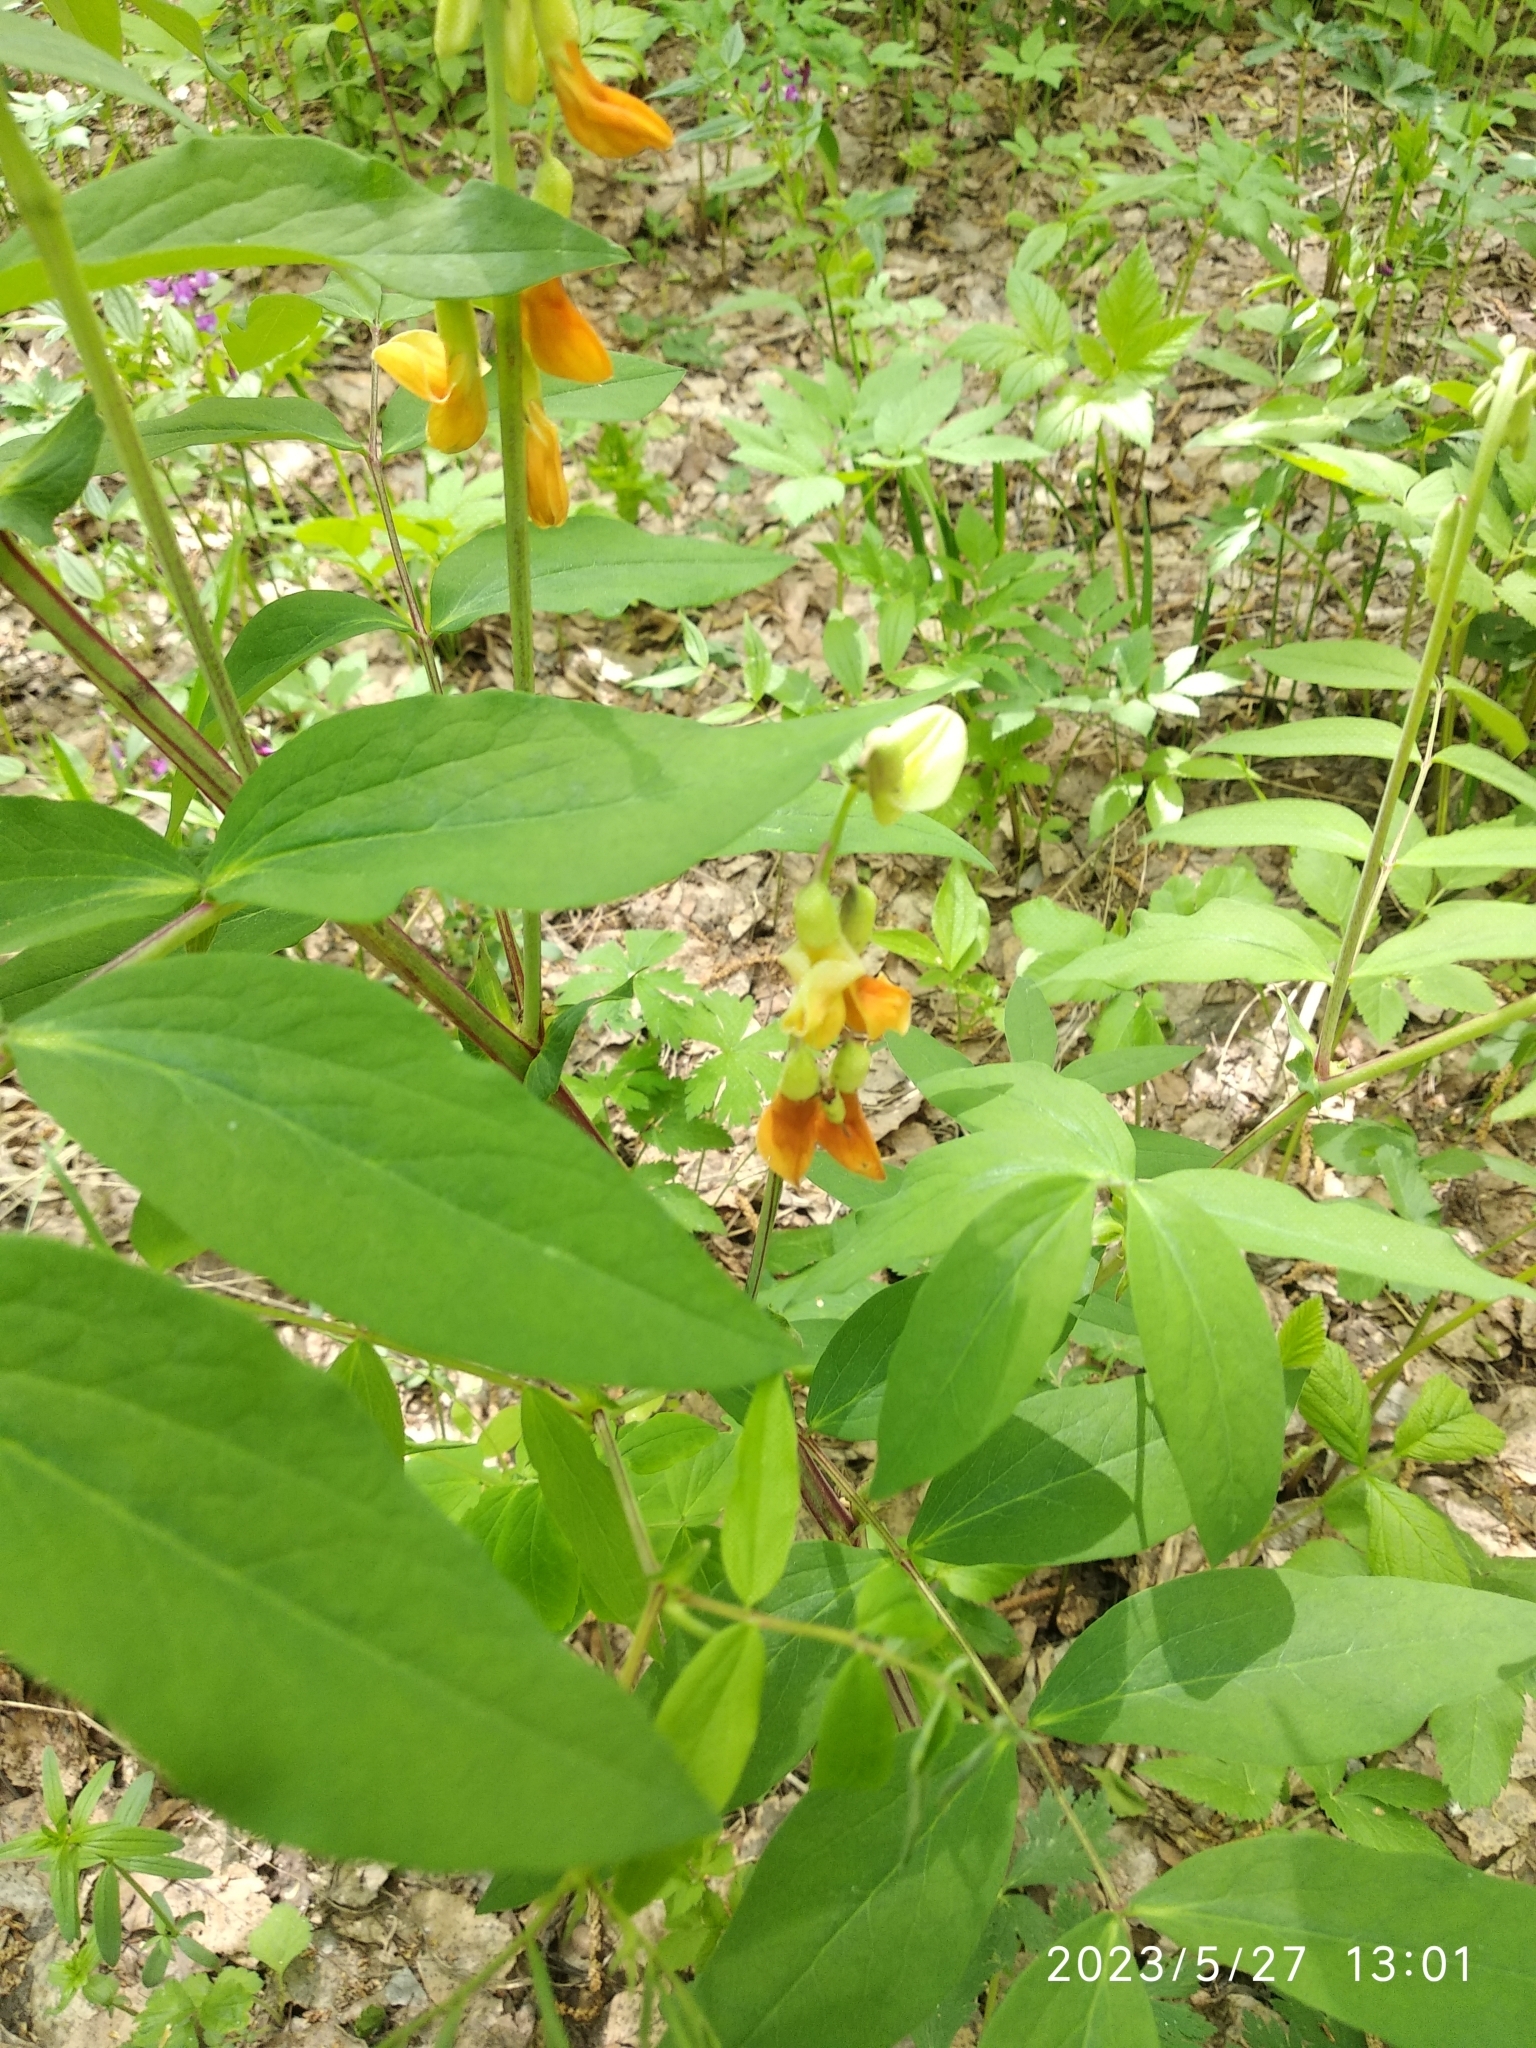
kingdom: Plantae
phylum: Tracheophyta
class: Magnoliopsida
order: Fabales
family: Fabaceae
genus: Lathyrus
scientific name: Lathyrus gmelinii
